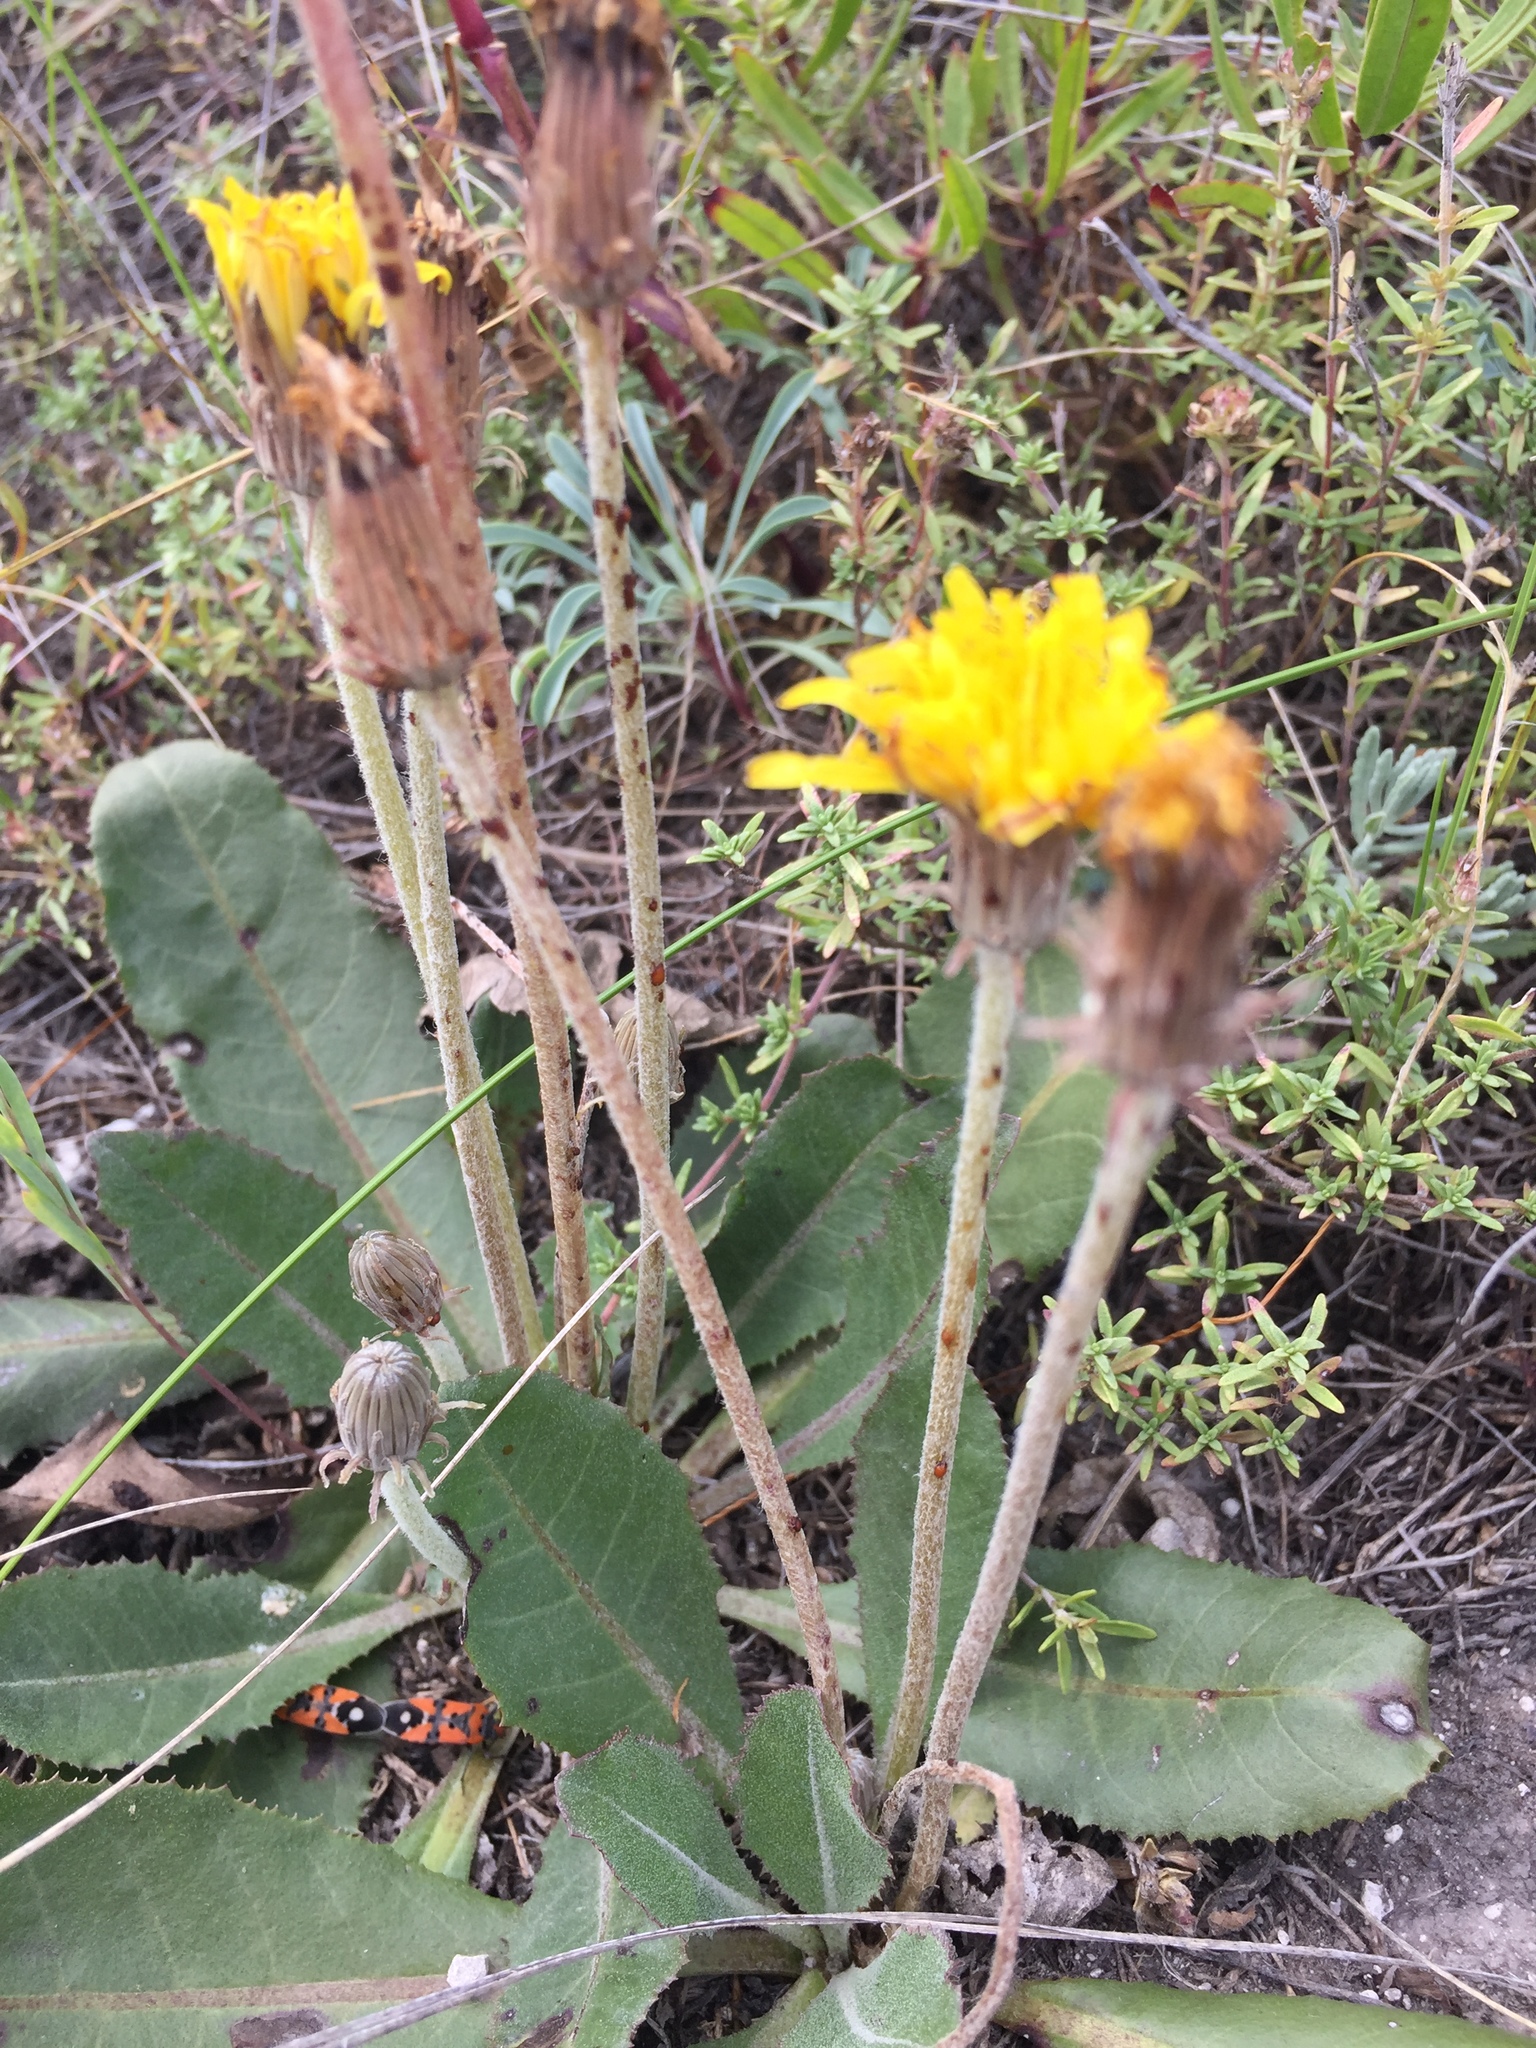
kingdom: Plantae
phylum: Tracheophyta
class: Magnoliopsida
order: Asterales
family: Asteraceae
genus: Taraxacum
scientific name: Taraxacum serotinum
